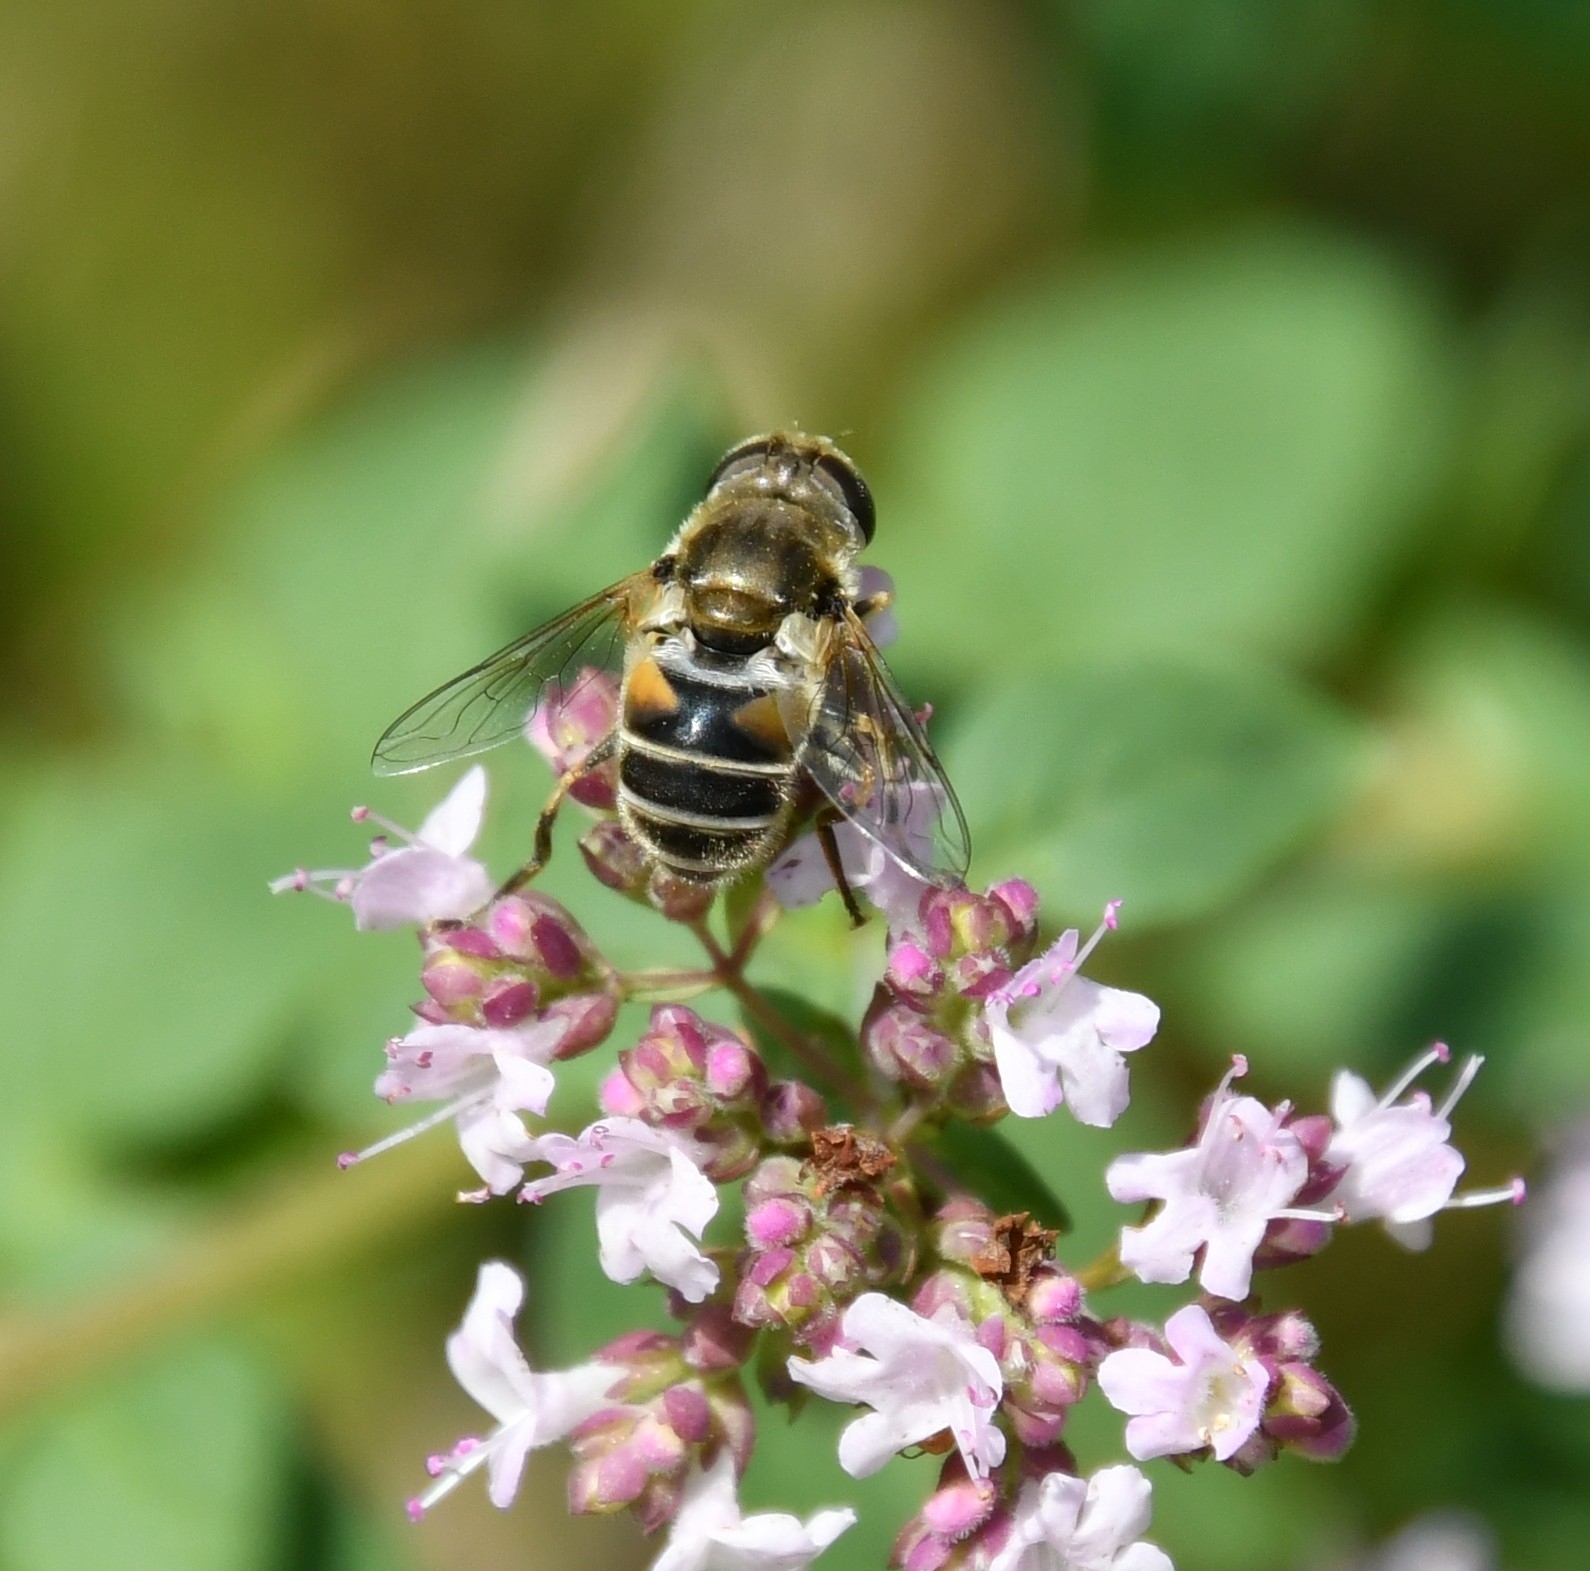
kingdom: Animalia
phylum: Arthropoda
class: Insecta
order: Diptera
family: Syrphidae
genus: Eristalis
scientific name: Eristalis arbustorum
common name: Hover fly
